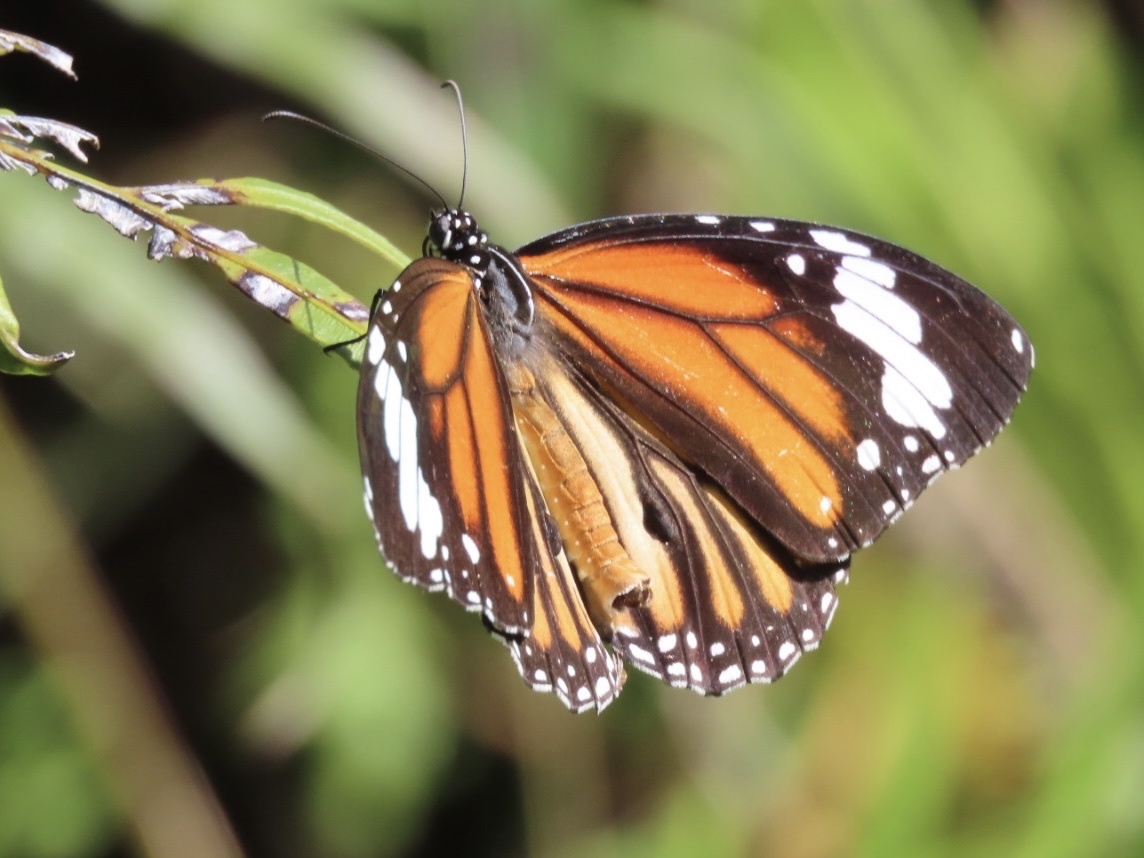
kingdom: Animalia
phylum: Arthropoda
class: Insecta
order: Lepidoptera
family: Nymphalidae
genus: Danaus
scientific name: Danaus genutia
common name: Common tiger butterfly
